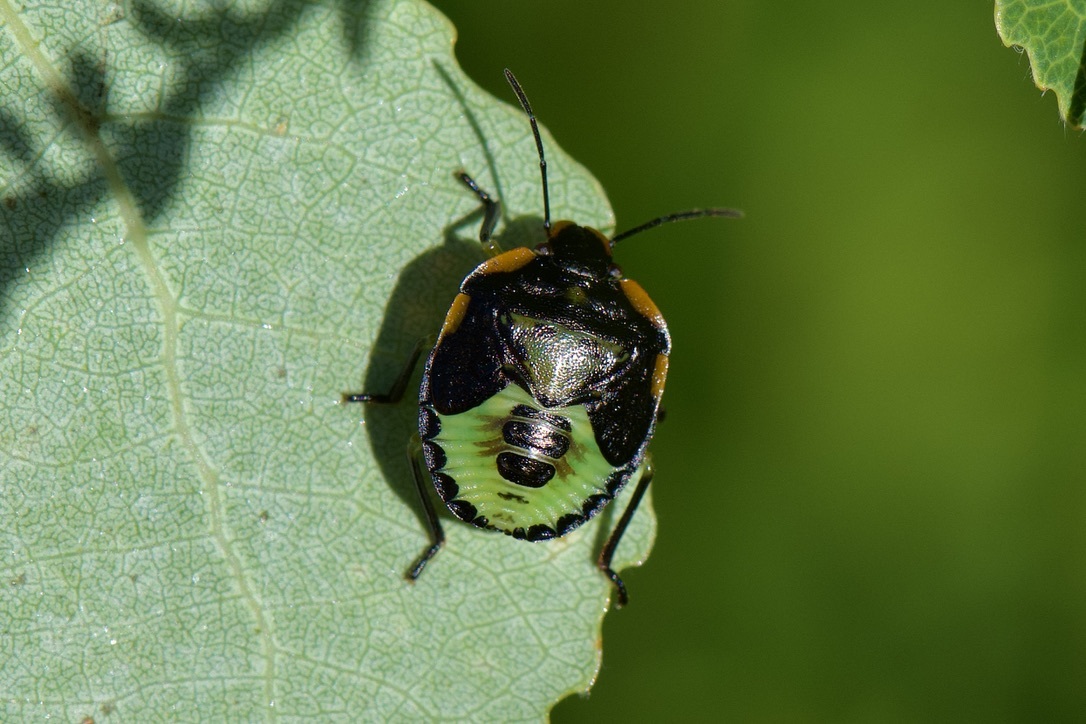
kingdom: Animalia
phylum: Arthropoda
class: Insecta
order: Hemiptera
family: Pentatomidae
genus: Chinavia
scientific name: Chinavia hilaris
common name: Green stink bug
